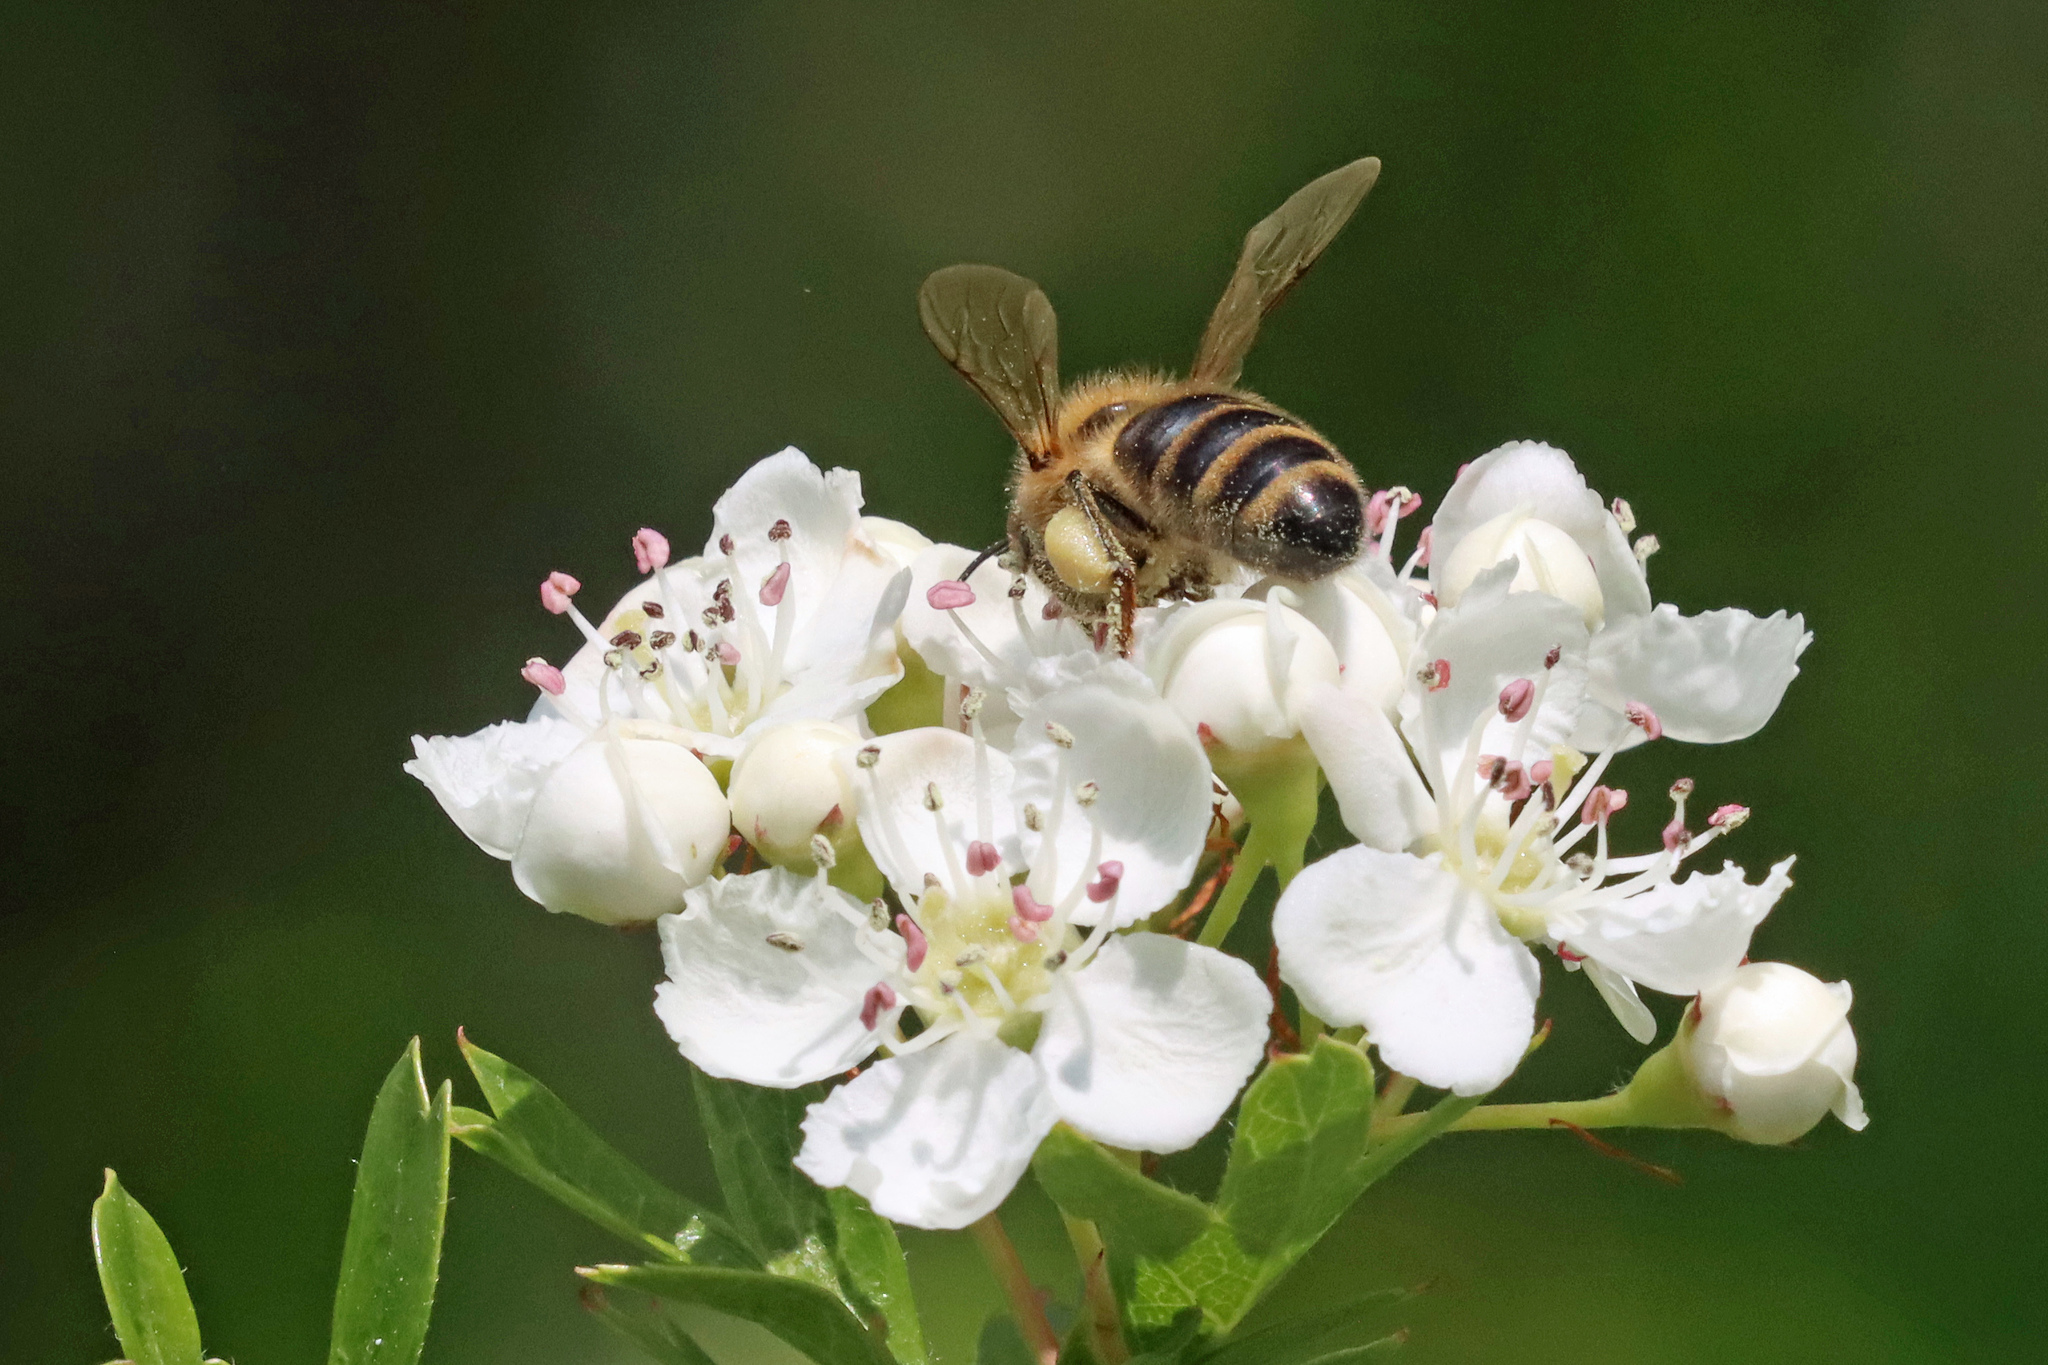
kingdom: Animalia
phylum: Arthropoda
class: Insecta
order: Hymenoptera
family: Apidae
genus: Apis
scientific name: Apis mellifera
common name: Honey bee
